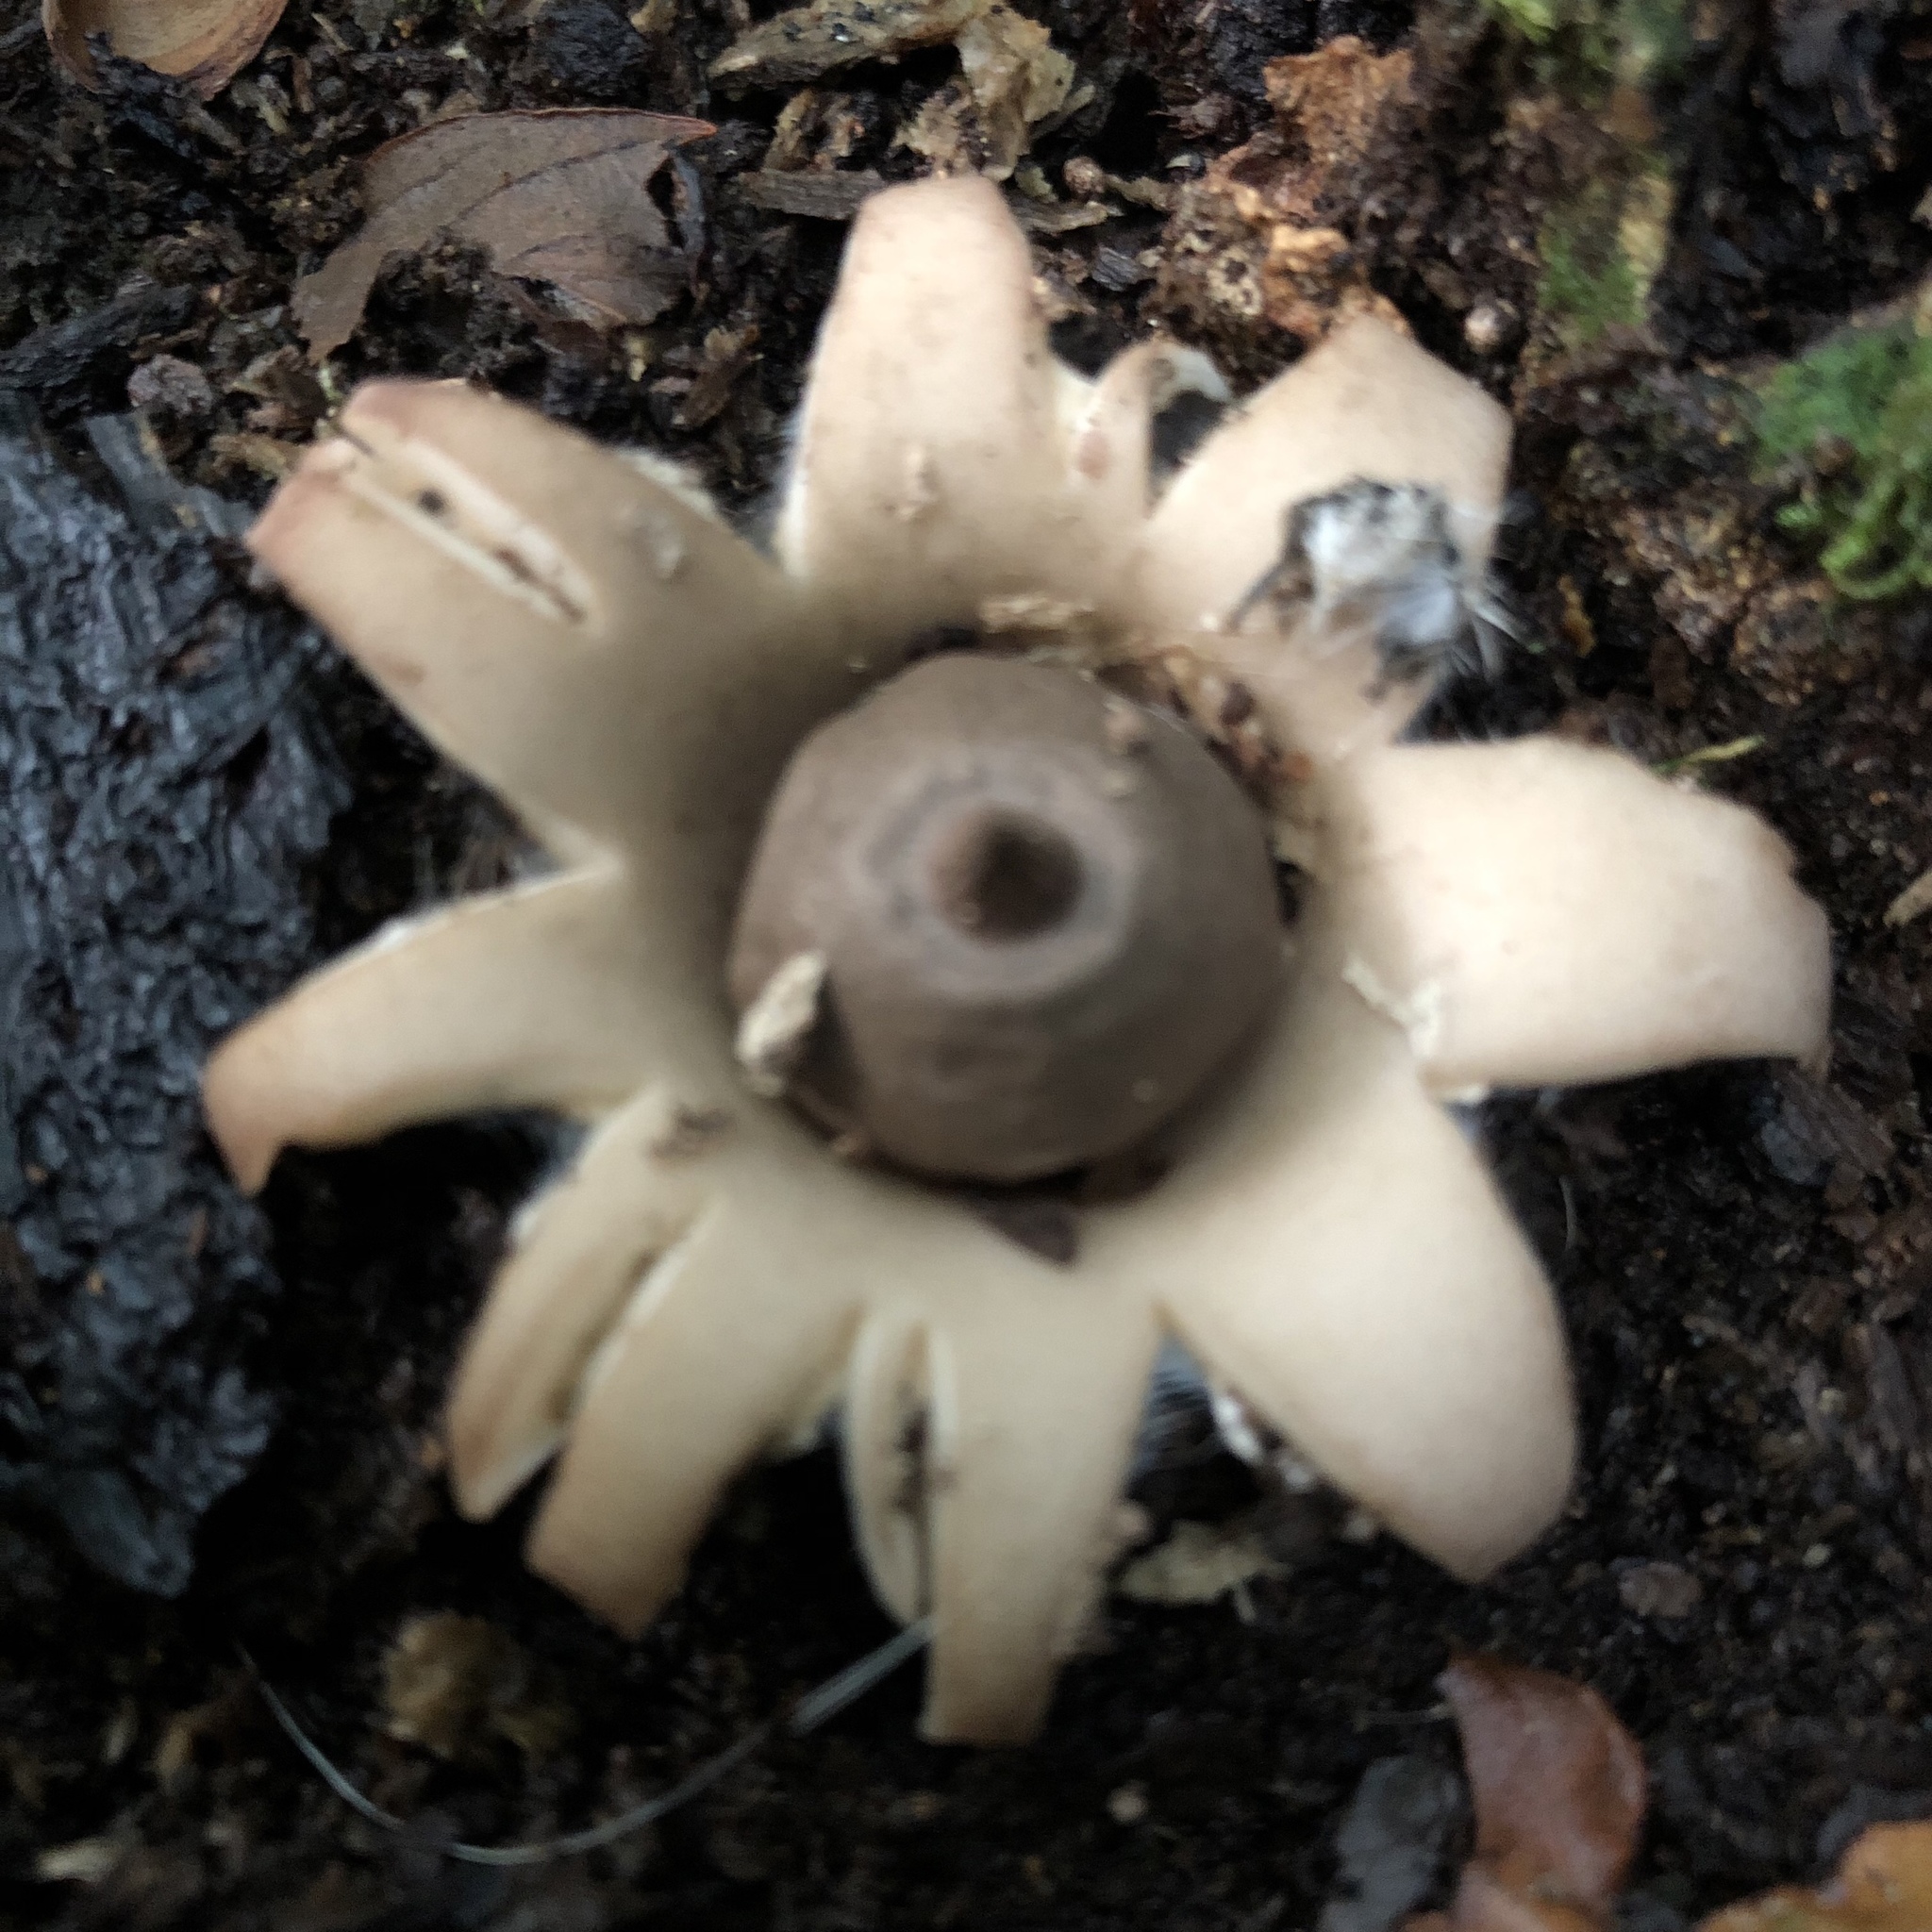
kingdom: Fungi
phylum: Basidiomycota
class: Agaricomycetes
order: Geastrales
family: Geastraceae
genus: Geastrum
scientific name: Geastrum saccatum
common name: Rounded earthstar
